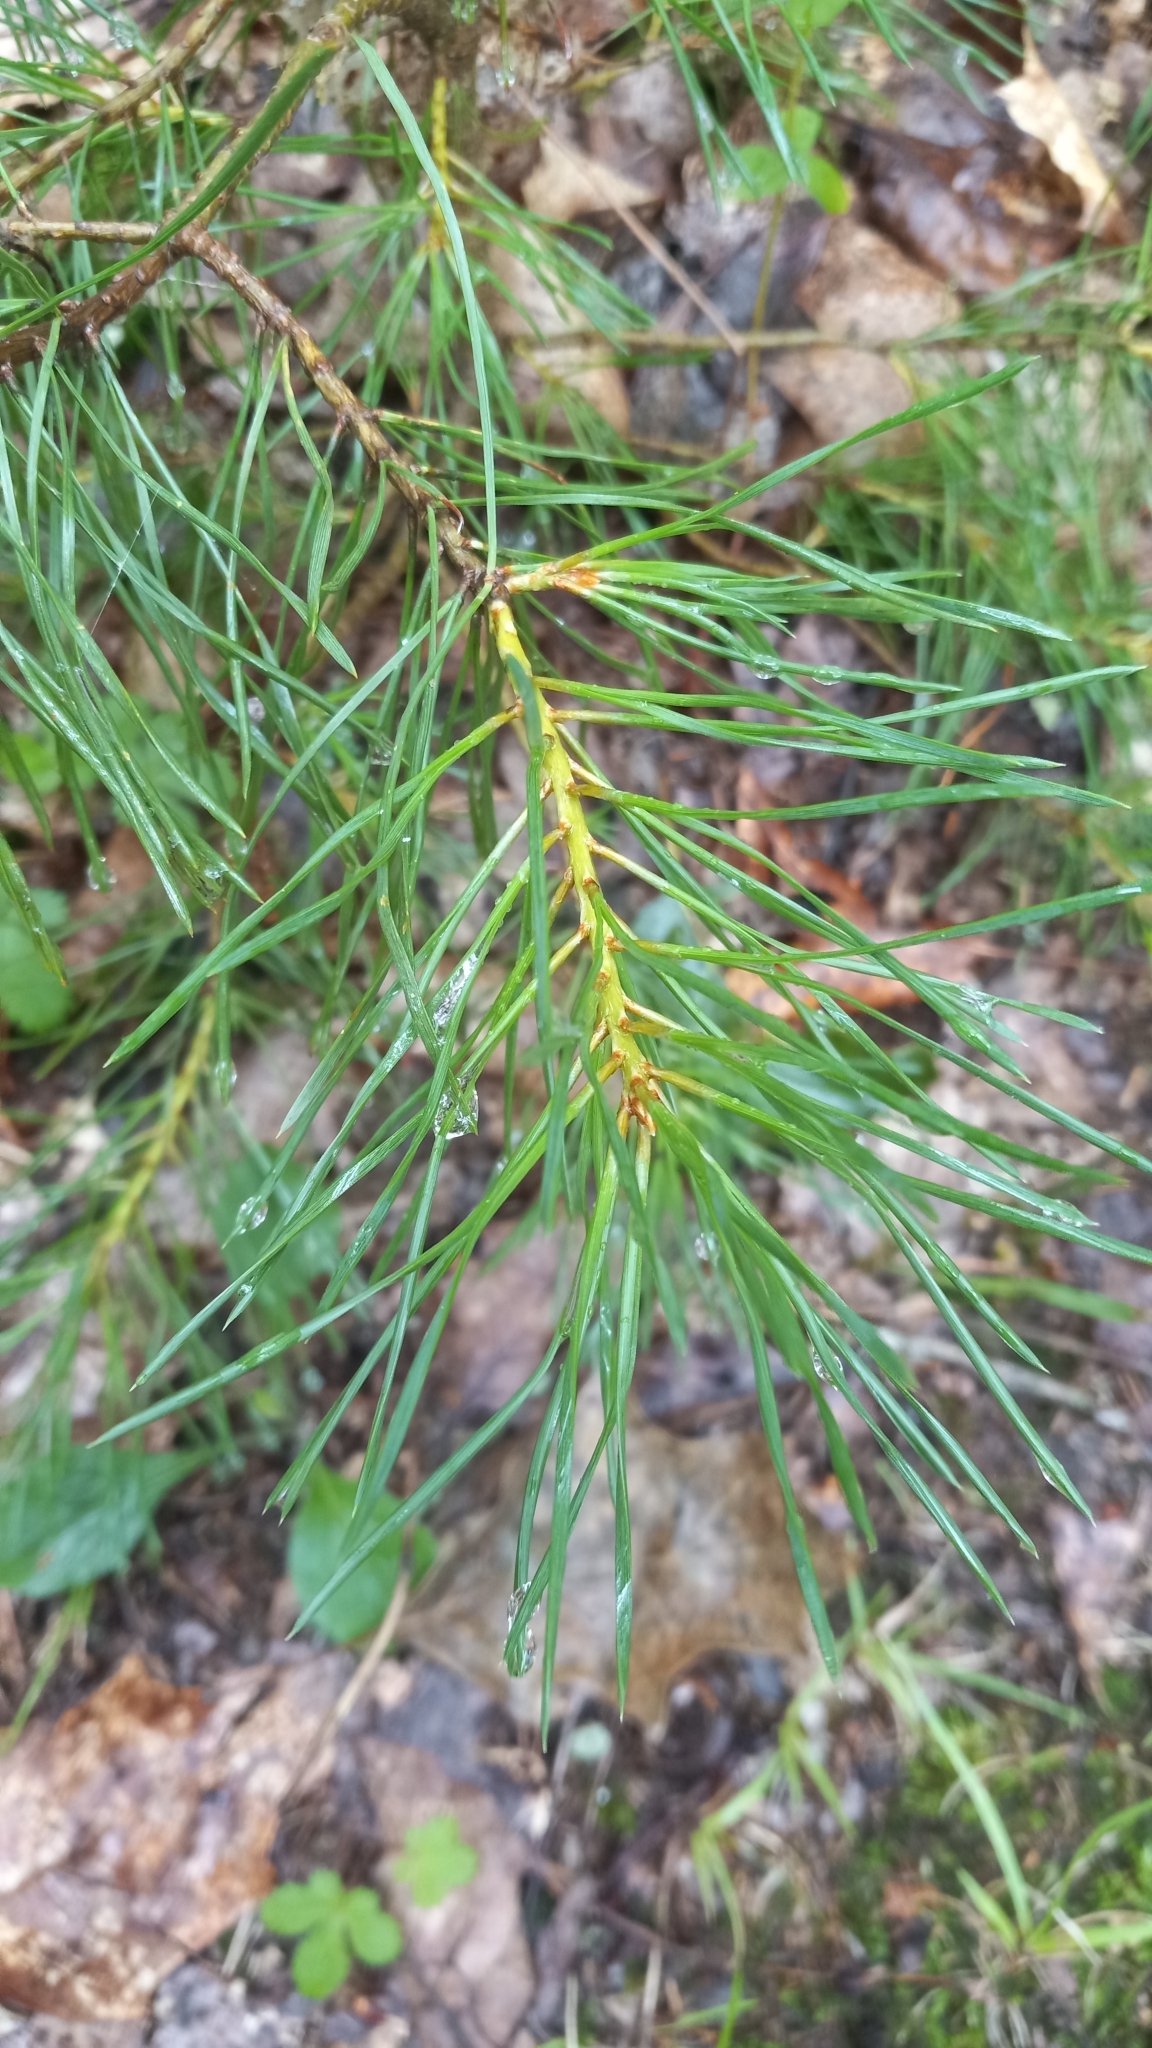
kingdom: Plantae
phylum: Tracheophyta
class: Pinopsida
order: Pinales
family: Pinaceae
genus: Pinus
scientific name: Pinus virginiana
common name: Scrub pine
